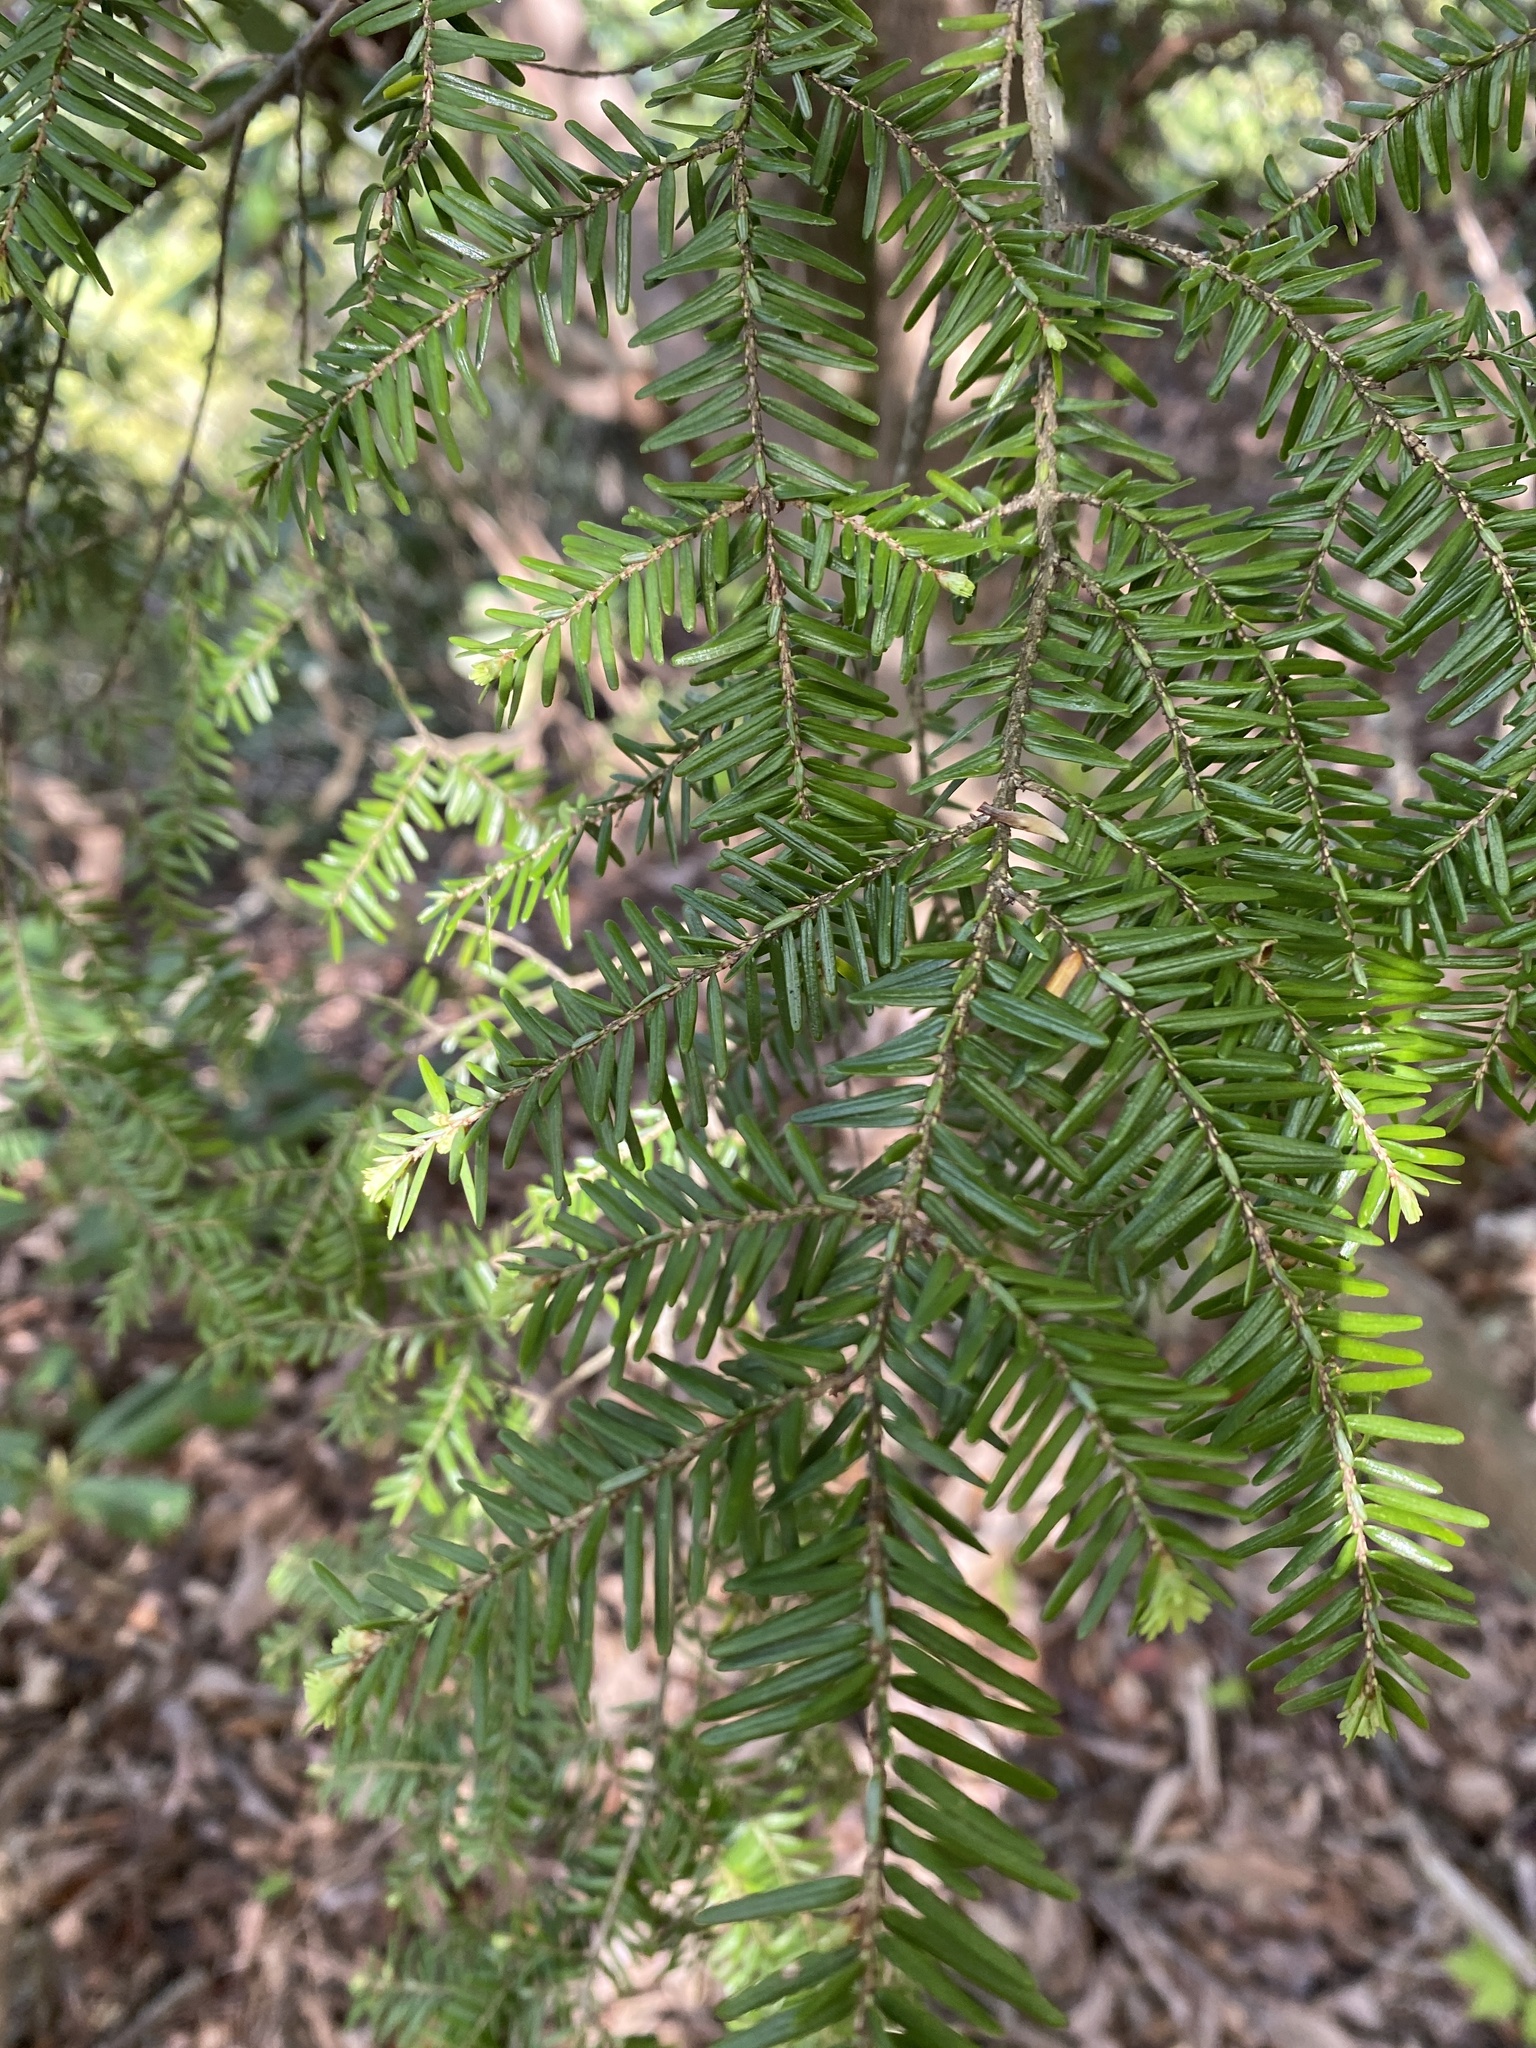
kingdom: Plantae
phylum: Tracheophyta
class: Pinopsida
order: Pinales
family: Pinaceae
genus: Tsuga
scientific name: Tsuga canadensis
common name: Eastern hemlock
